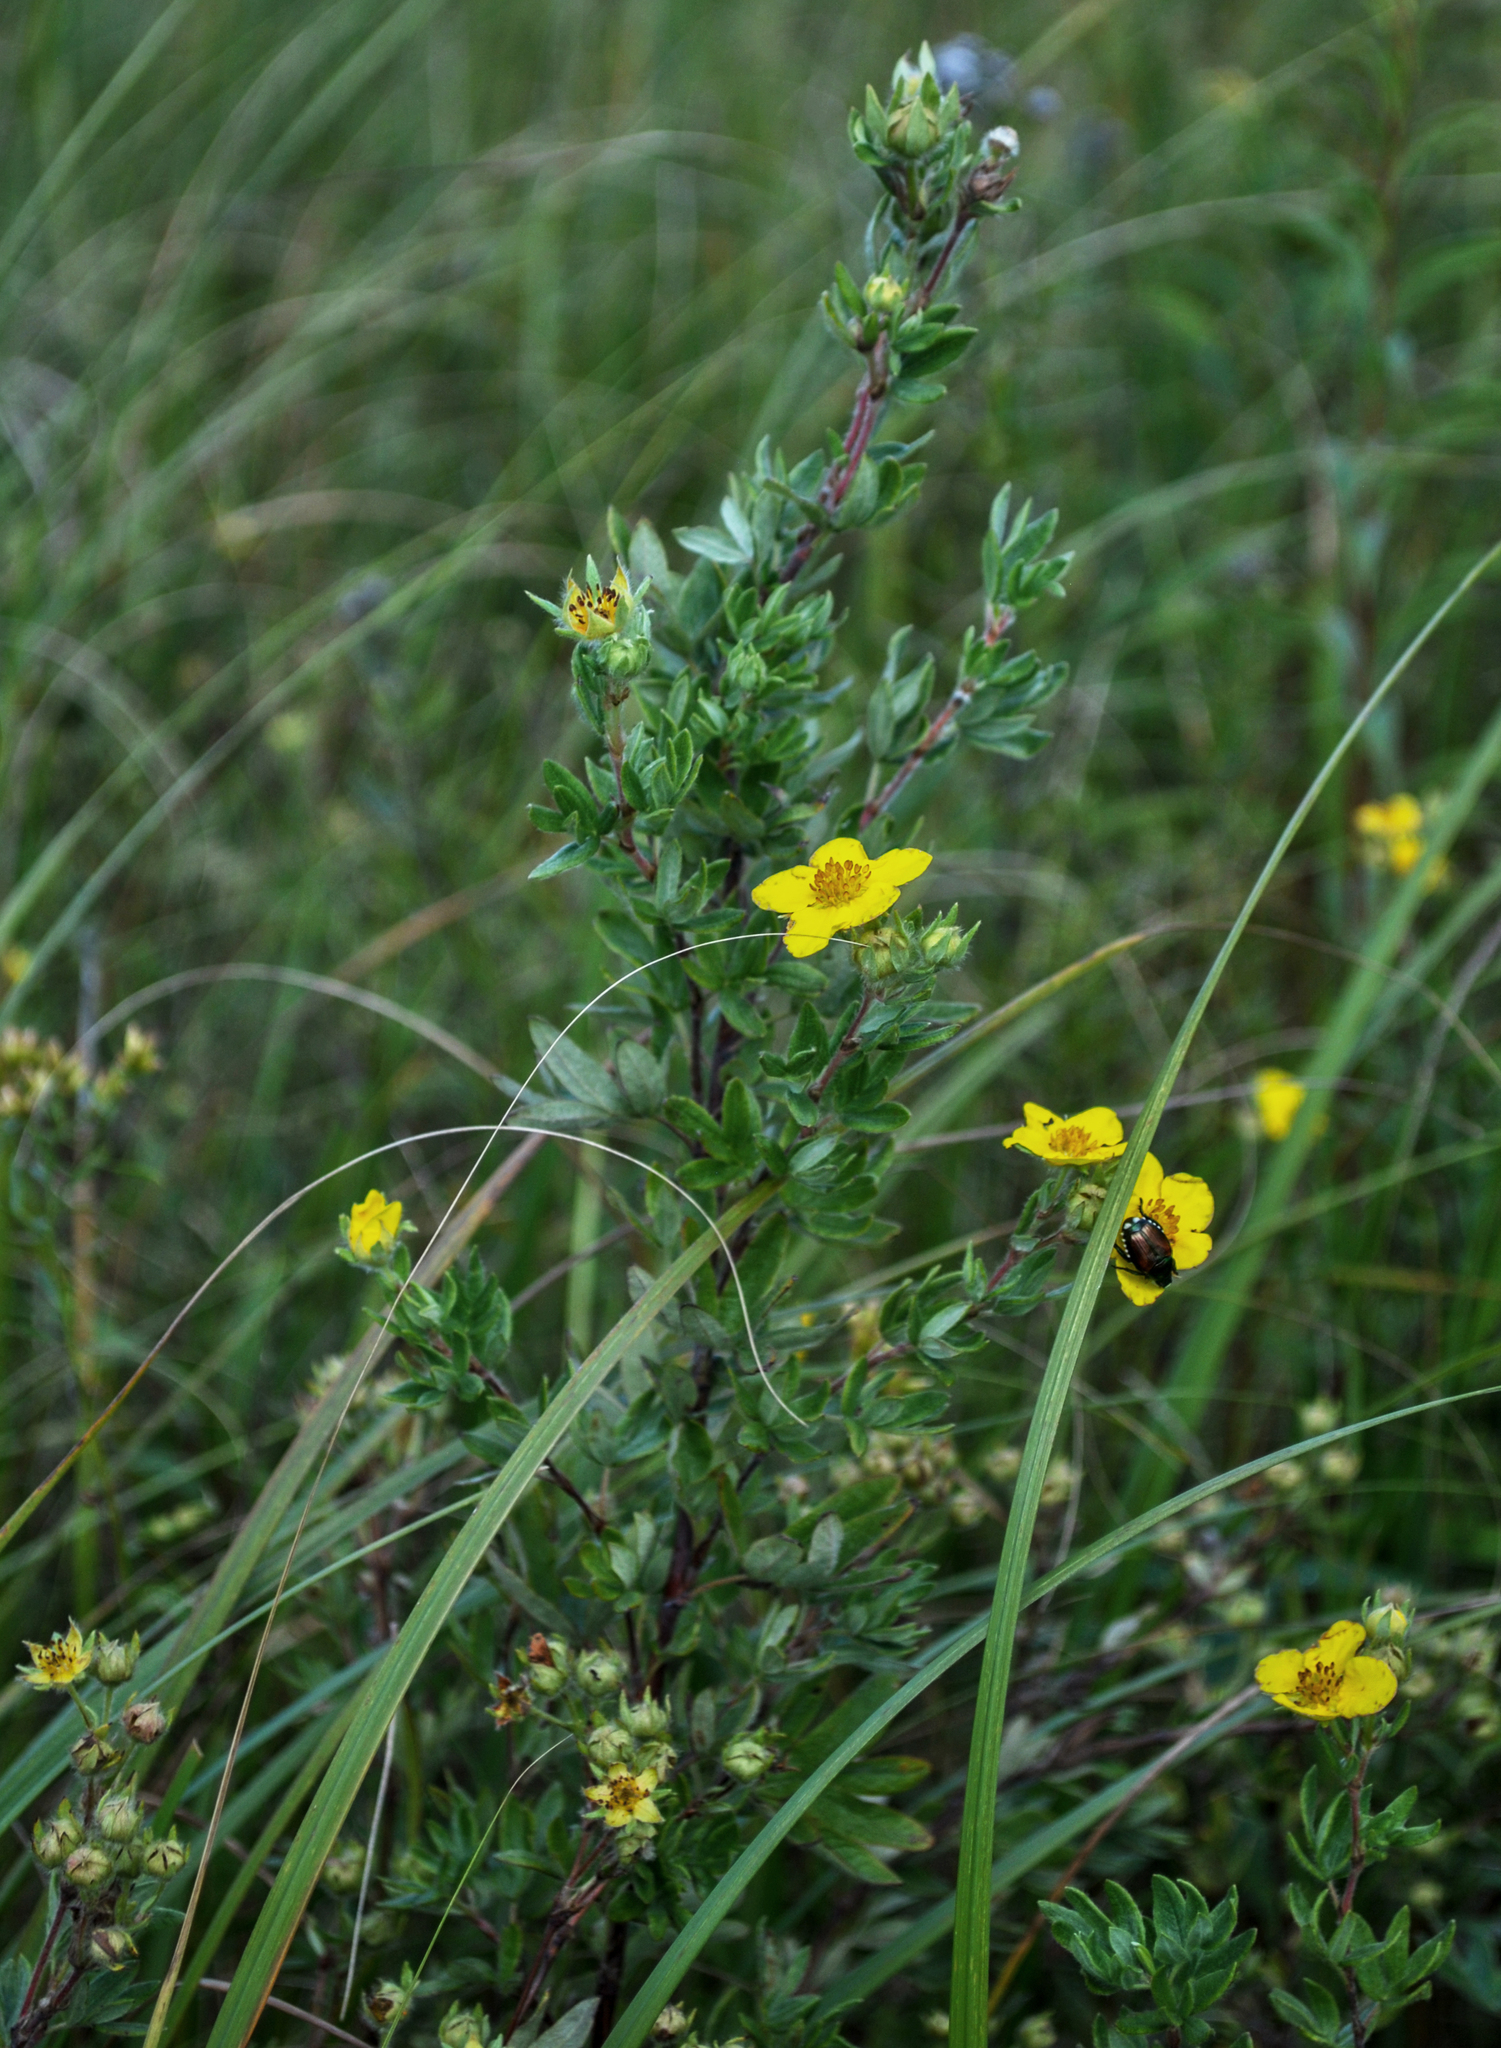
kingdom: Plantae
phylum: Tracheophyta
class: Magnoliopsida
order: Rosales
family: Rosaceae
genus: Dasiphora
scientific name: Dasiphora fruticosa
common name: Shrubby cinquefoil
